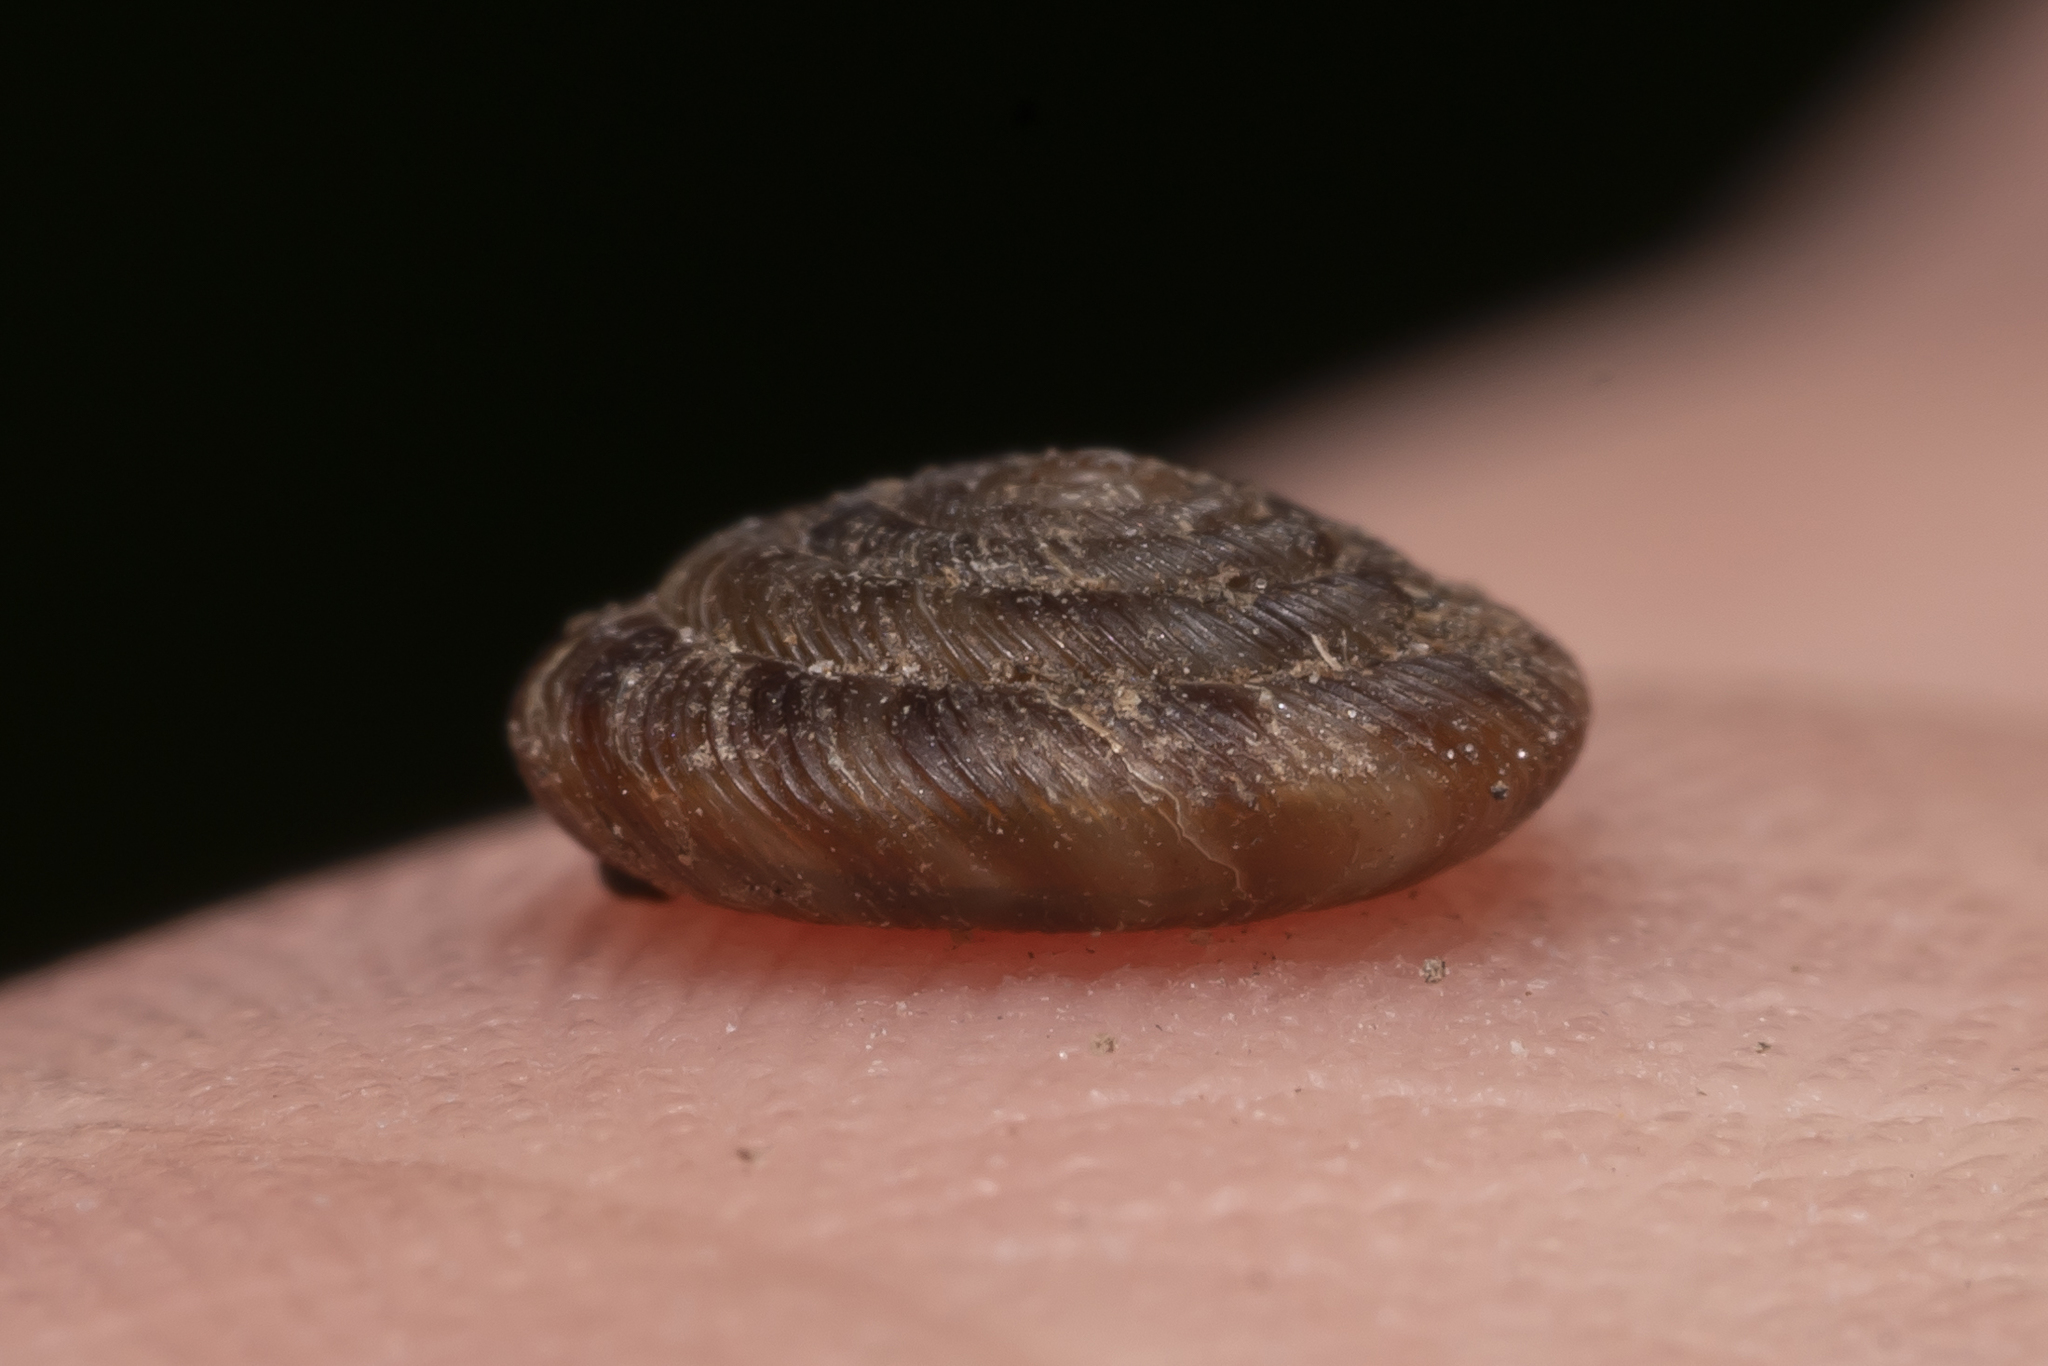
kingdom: Animalia
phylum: Mollusca
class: Gastropoda
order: Stylommatophora
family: Discidae
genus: Discus
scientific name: Discus rotundatus
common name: Rounded snail
